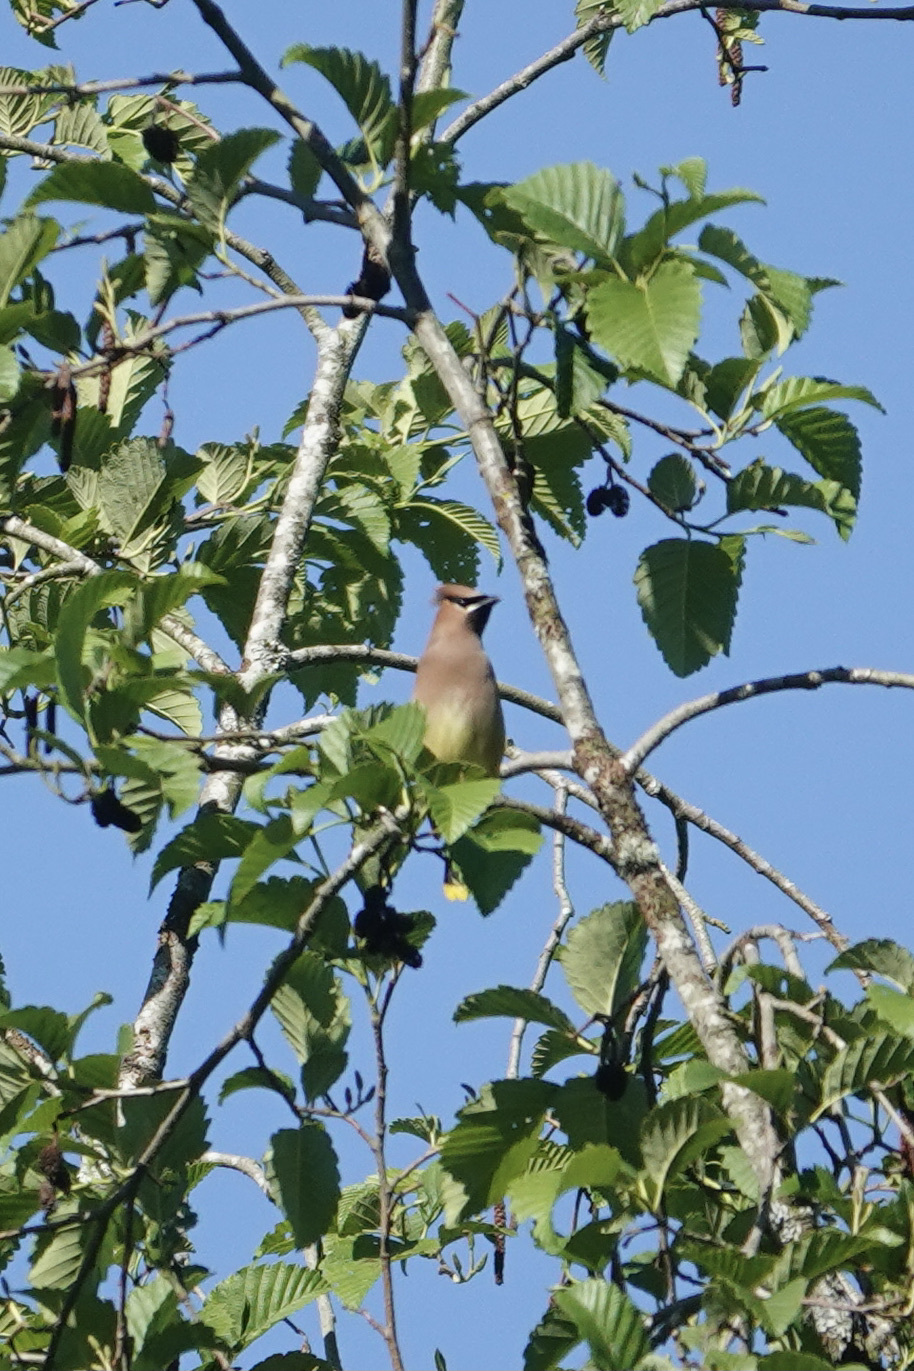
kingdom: Animalia
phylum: Chordata
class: Aves
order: Passeriformes
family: Bombycillidae
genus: Bombycilla
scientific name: Bombycilla cedrorum
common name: Cedar waxwing
